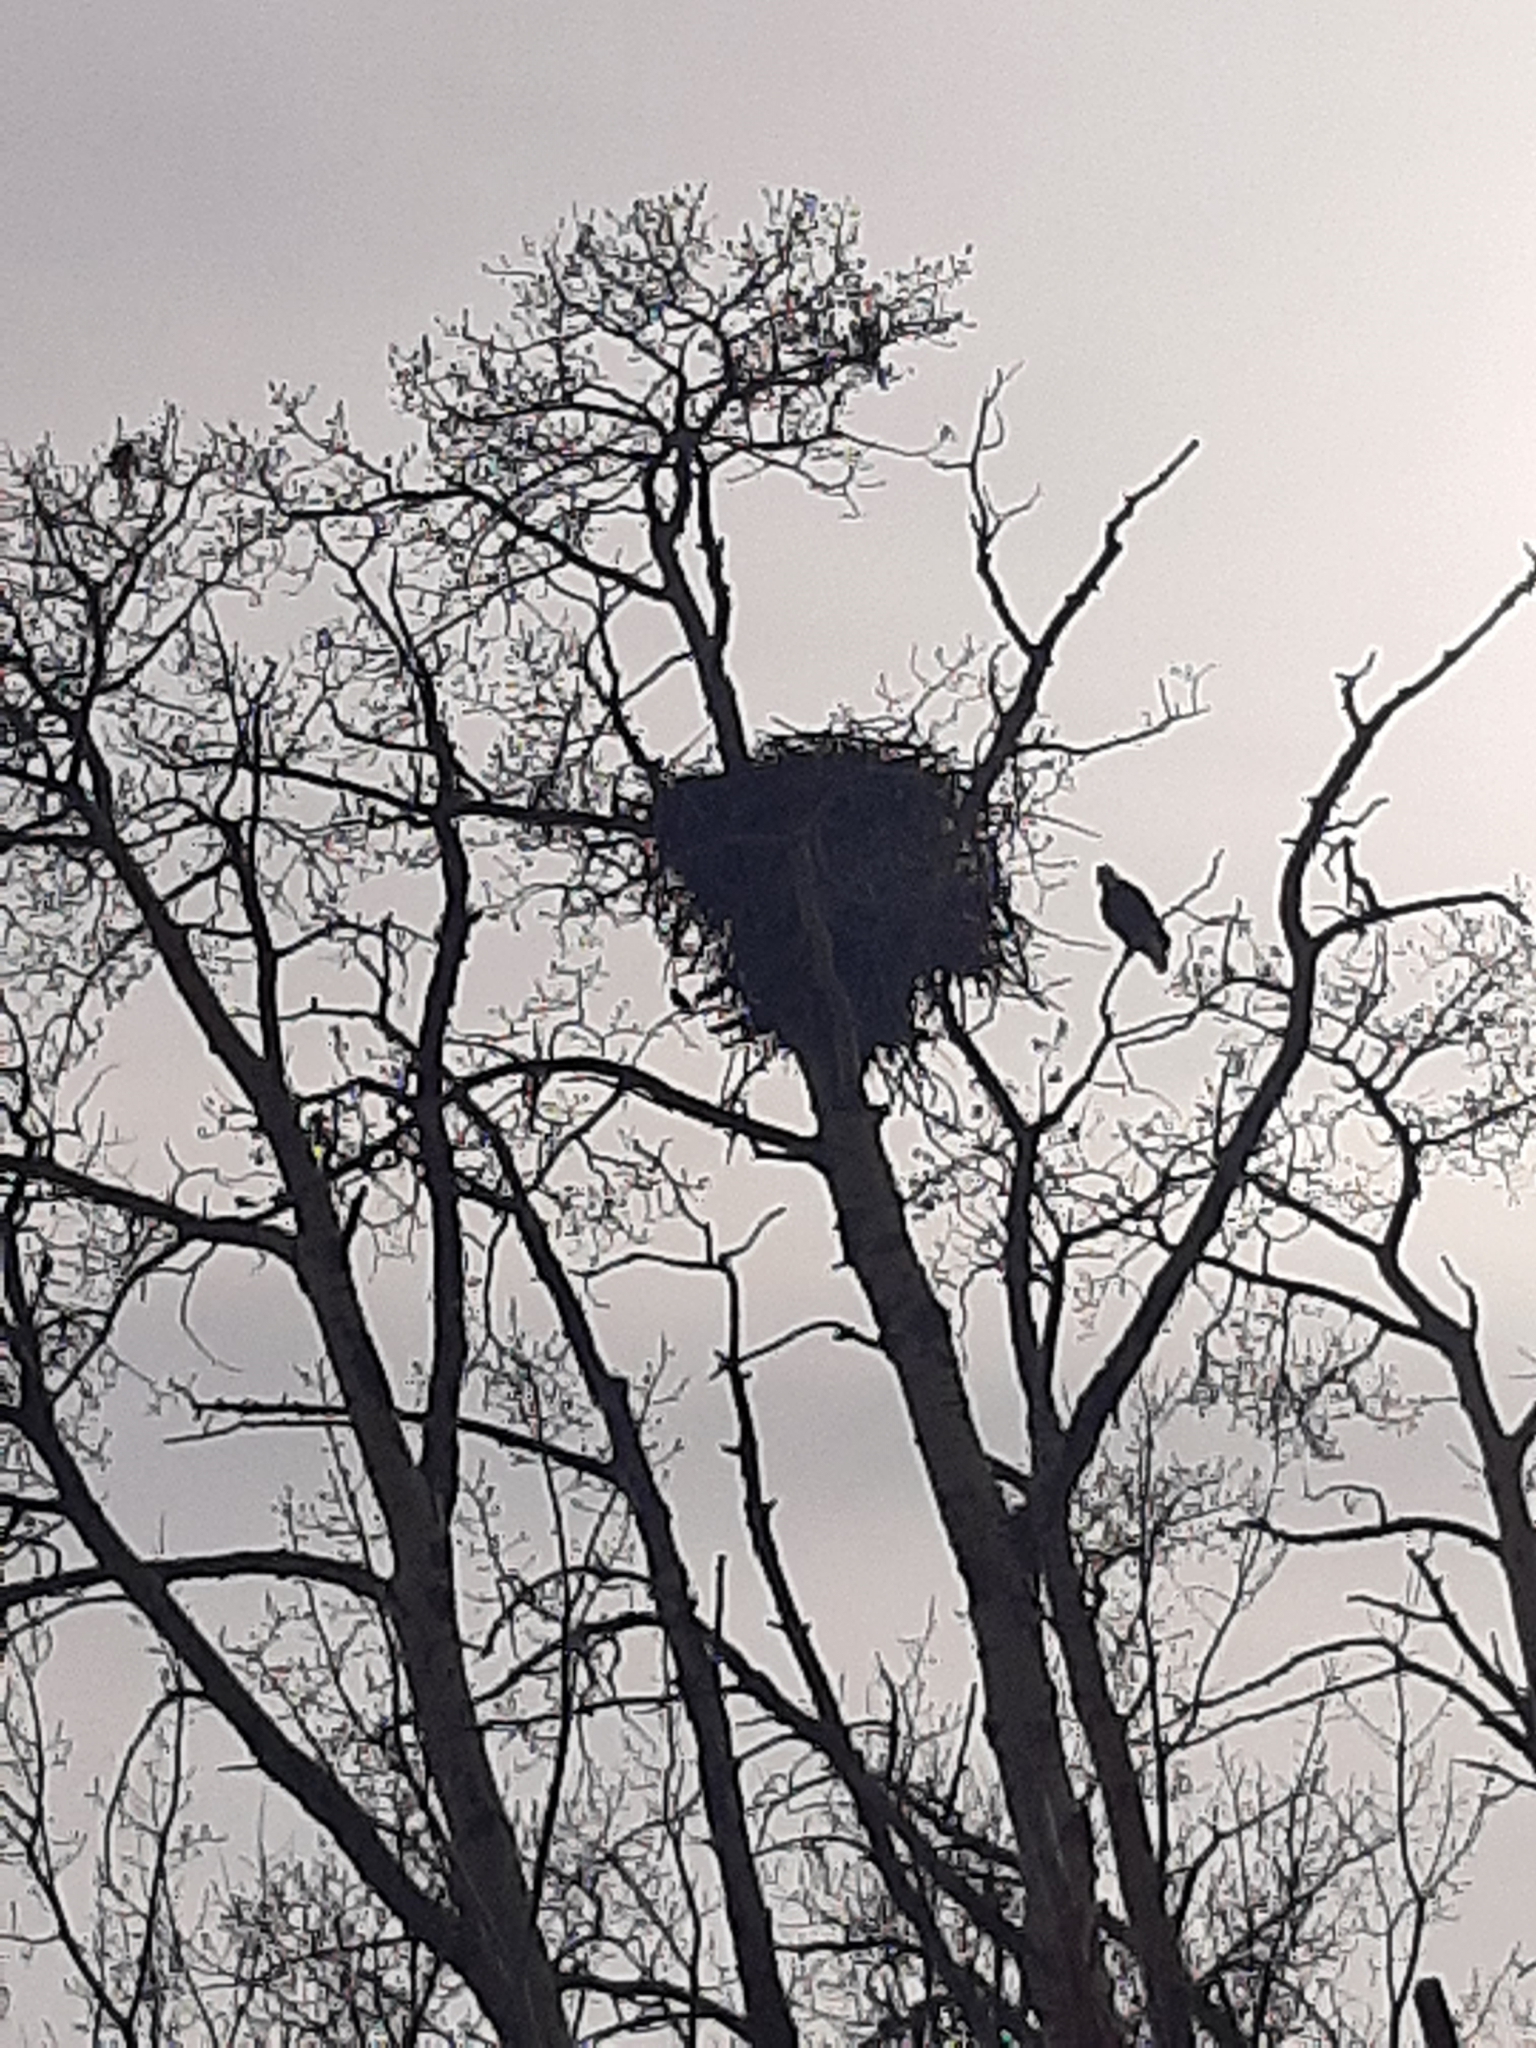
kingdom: Animalia
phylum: Chordata
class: Aves
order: Accipitriformes
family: Accipitridae
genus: Haliaeetus
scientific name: Haliaeetus leucocephalus
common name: Bald eagle
